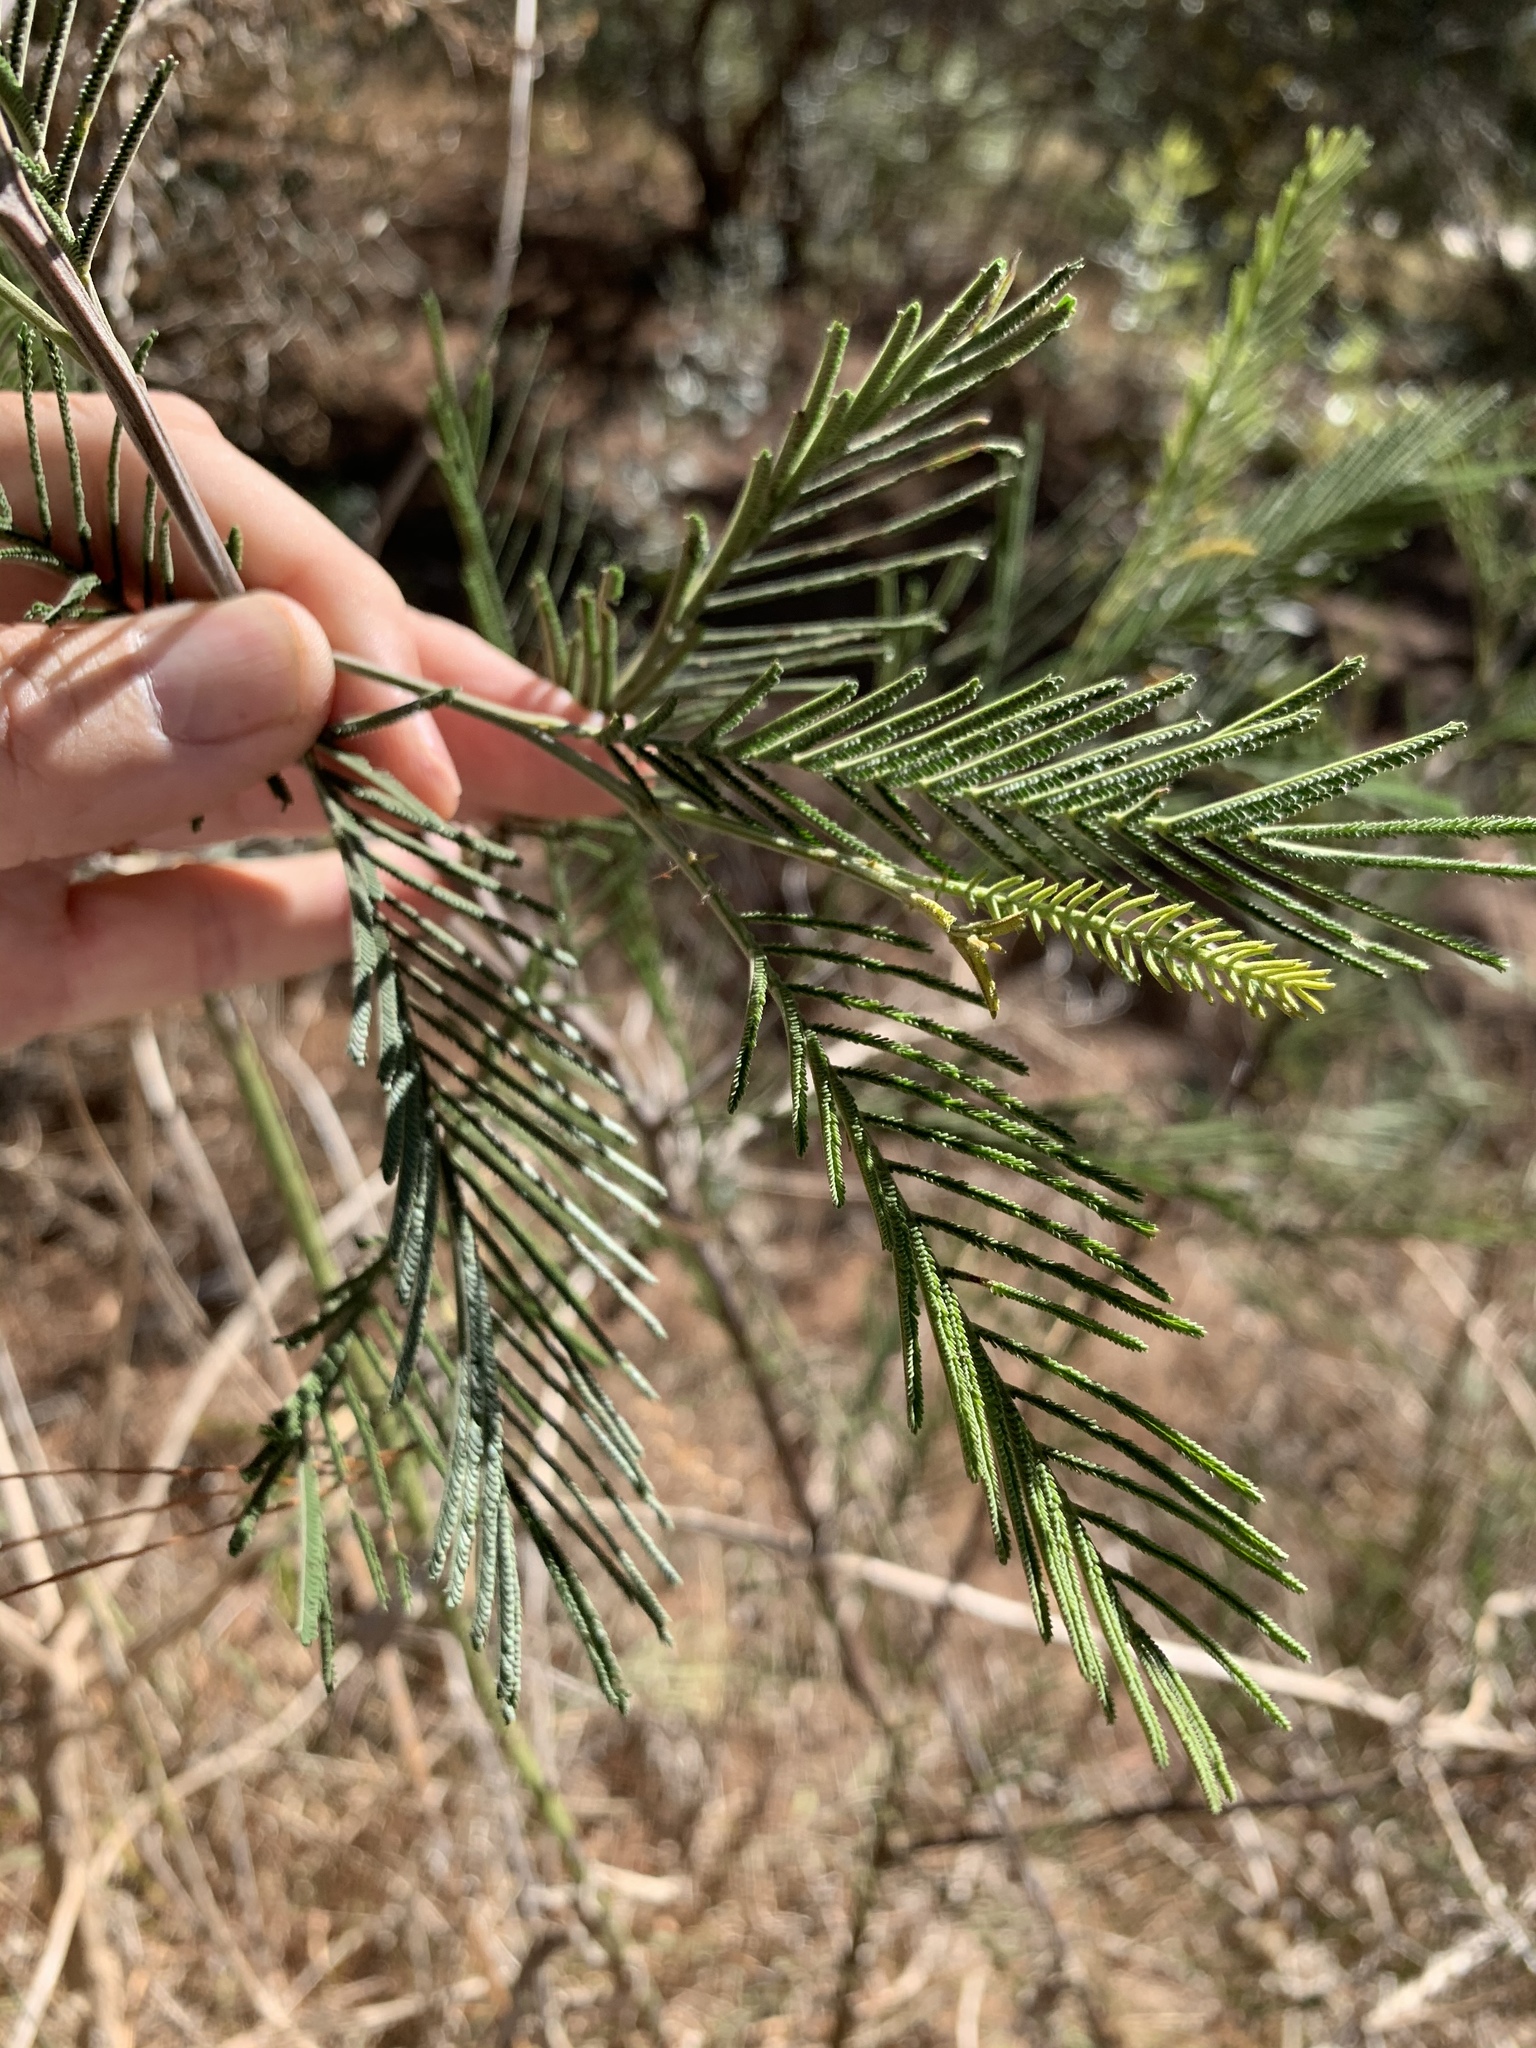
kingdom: Plantae
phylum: Tracheophyta
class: Magnoliopsida
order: Fabales
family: Fabaceae
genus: Acacia
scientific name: Acacia mearnsii
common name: Black wattle
